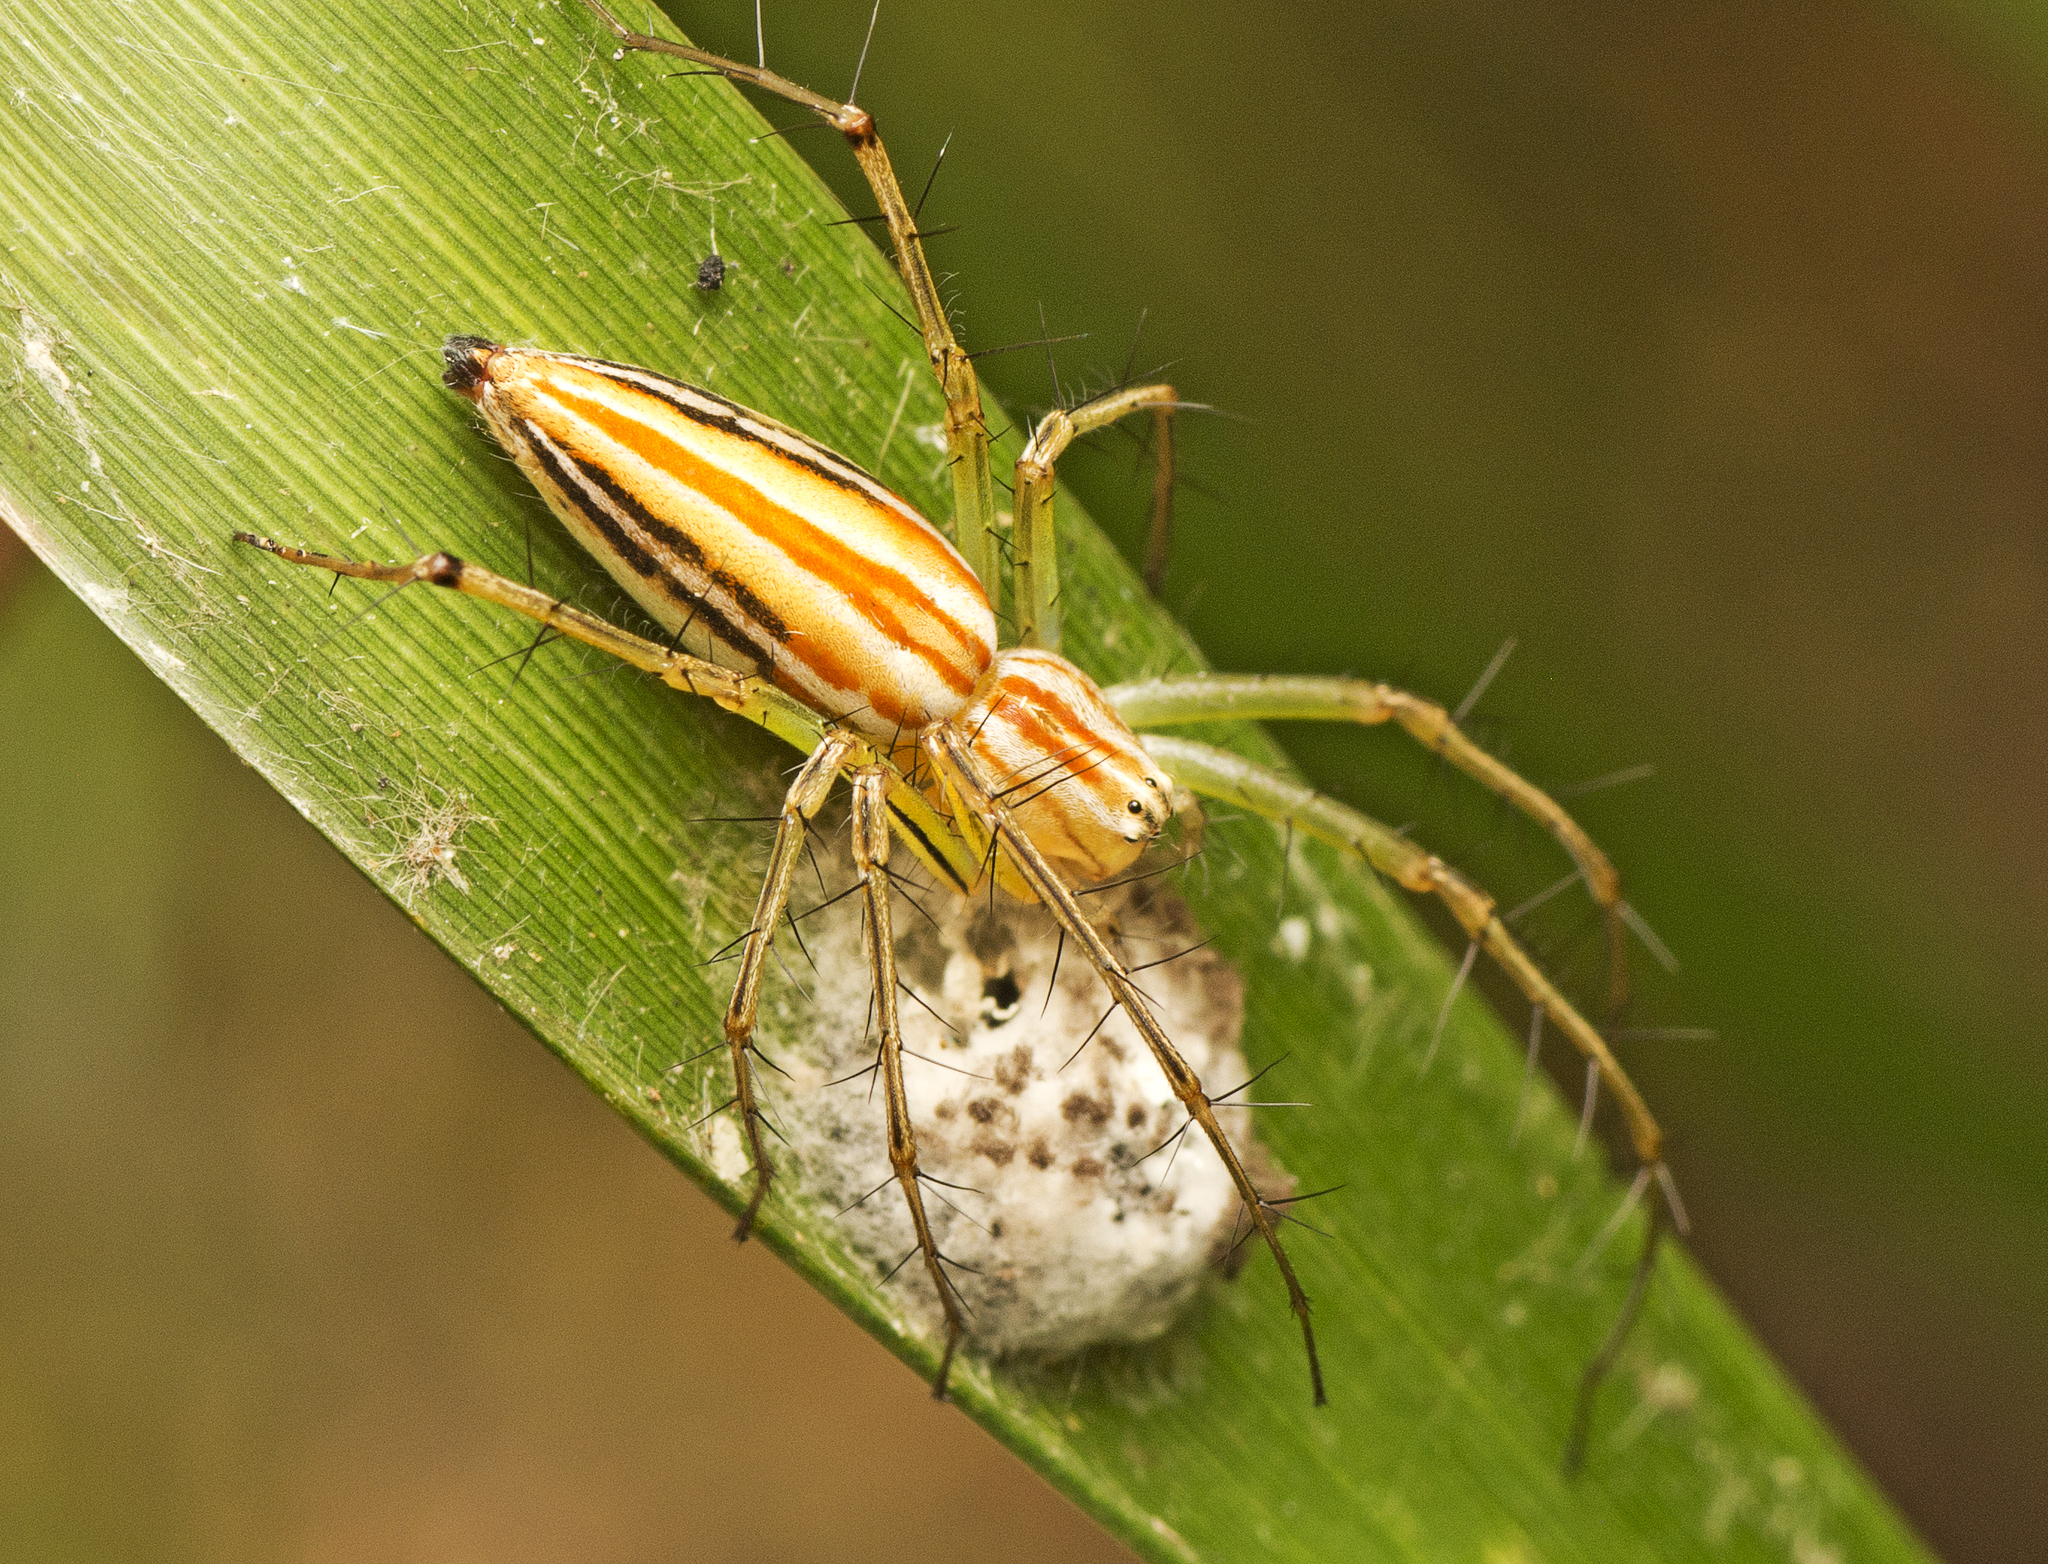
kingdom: Animalia
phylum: Arthropoda
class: Arachnida
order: Araneae
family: Oxyopidae
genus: Oxyopes
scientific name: Oxyopes macilentus
